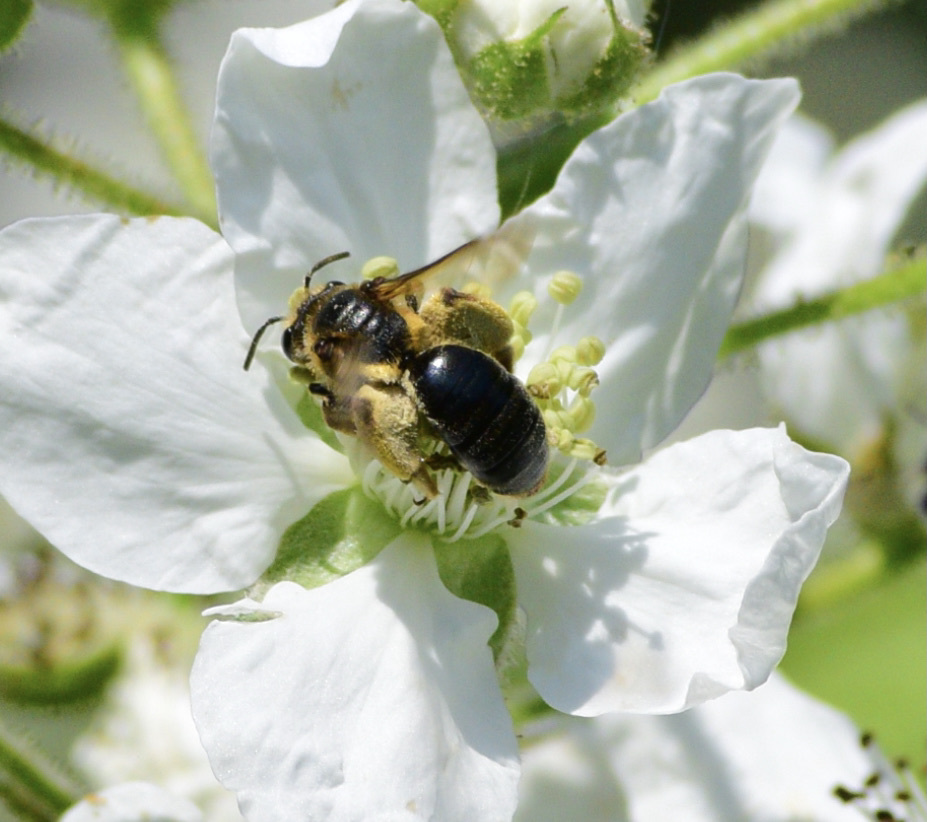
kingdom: Animalia
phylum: Arthropoda
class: Insecta
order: Hymenoptera
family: Andrenidae
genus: Andrena
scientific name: Andrena crataegi
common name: Hawthorn mining bee
